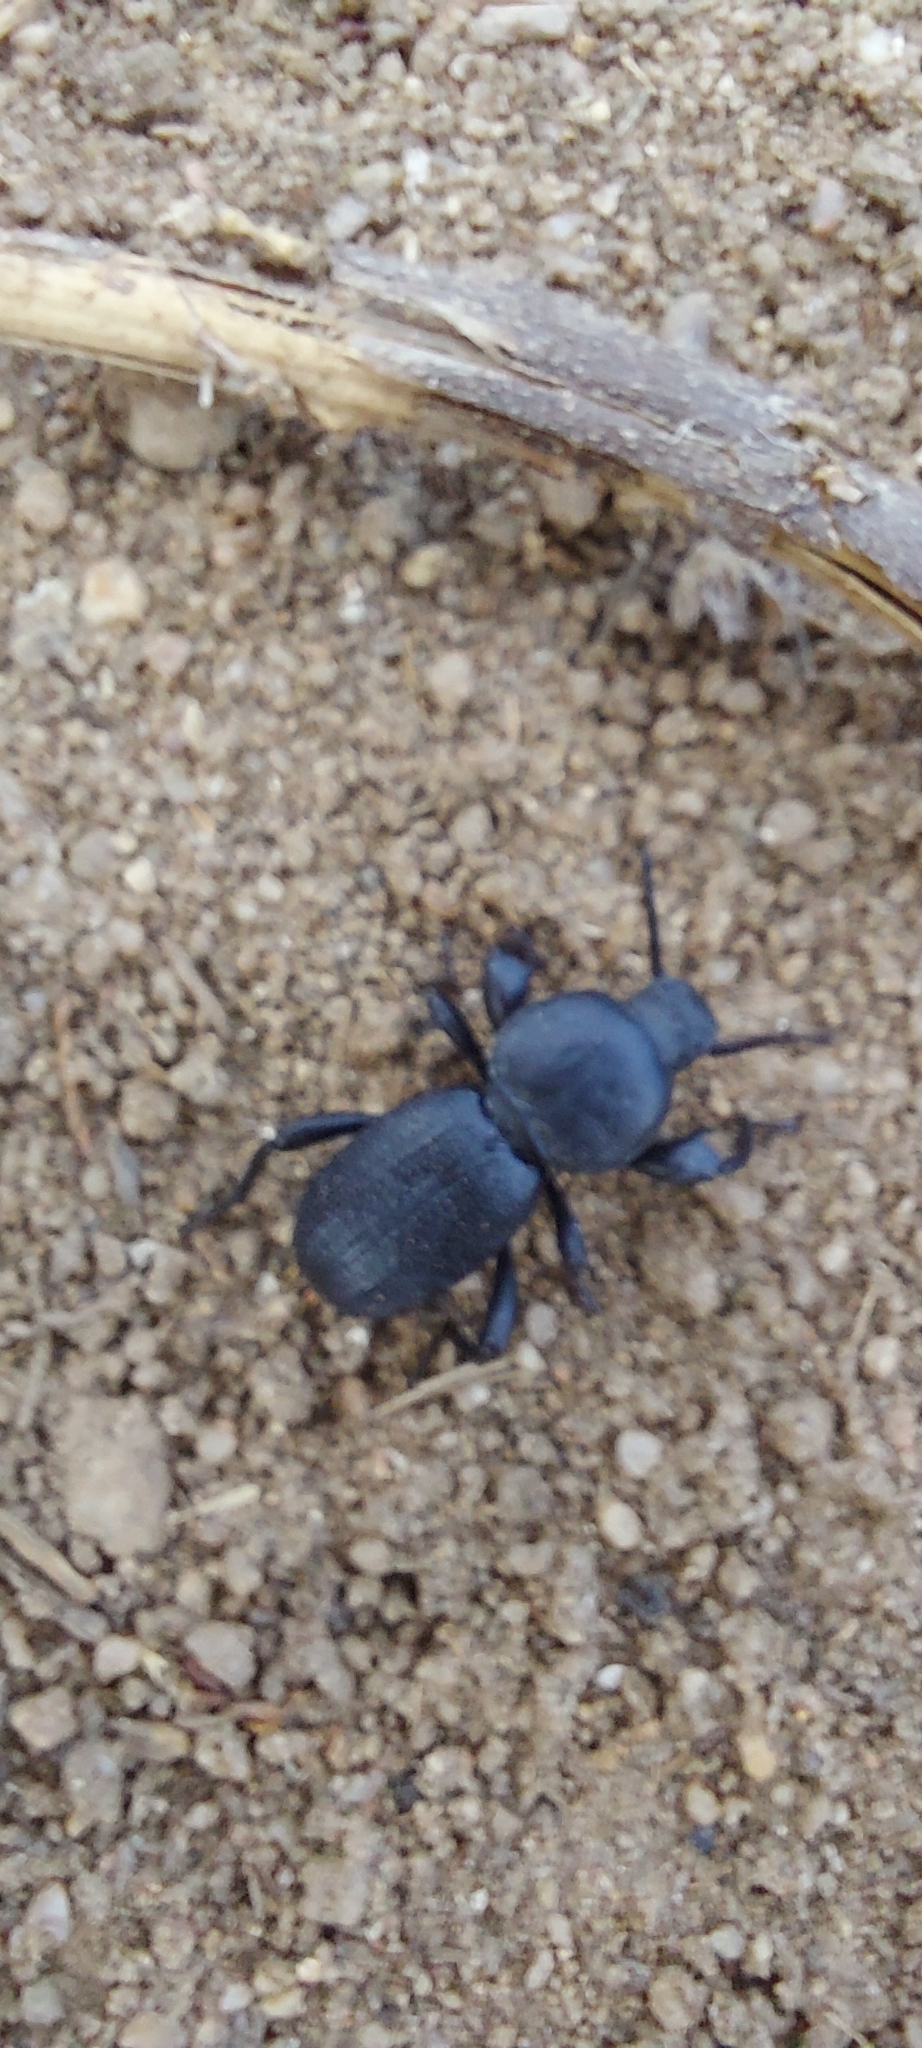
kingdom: Animalia
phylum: Arthropoda
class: Insecta
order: Coleoptera
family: Tenebrionidae
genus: Scaurus
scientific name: Scaurus uncinus
